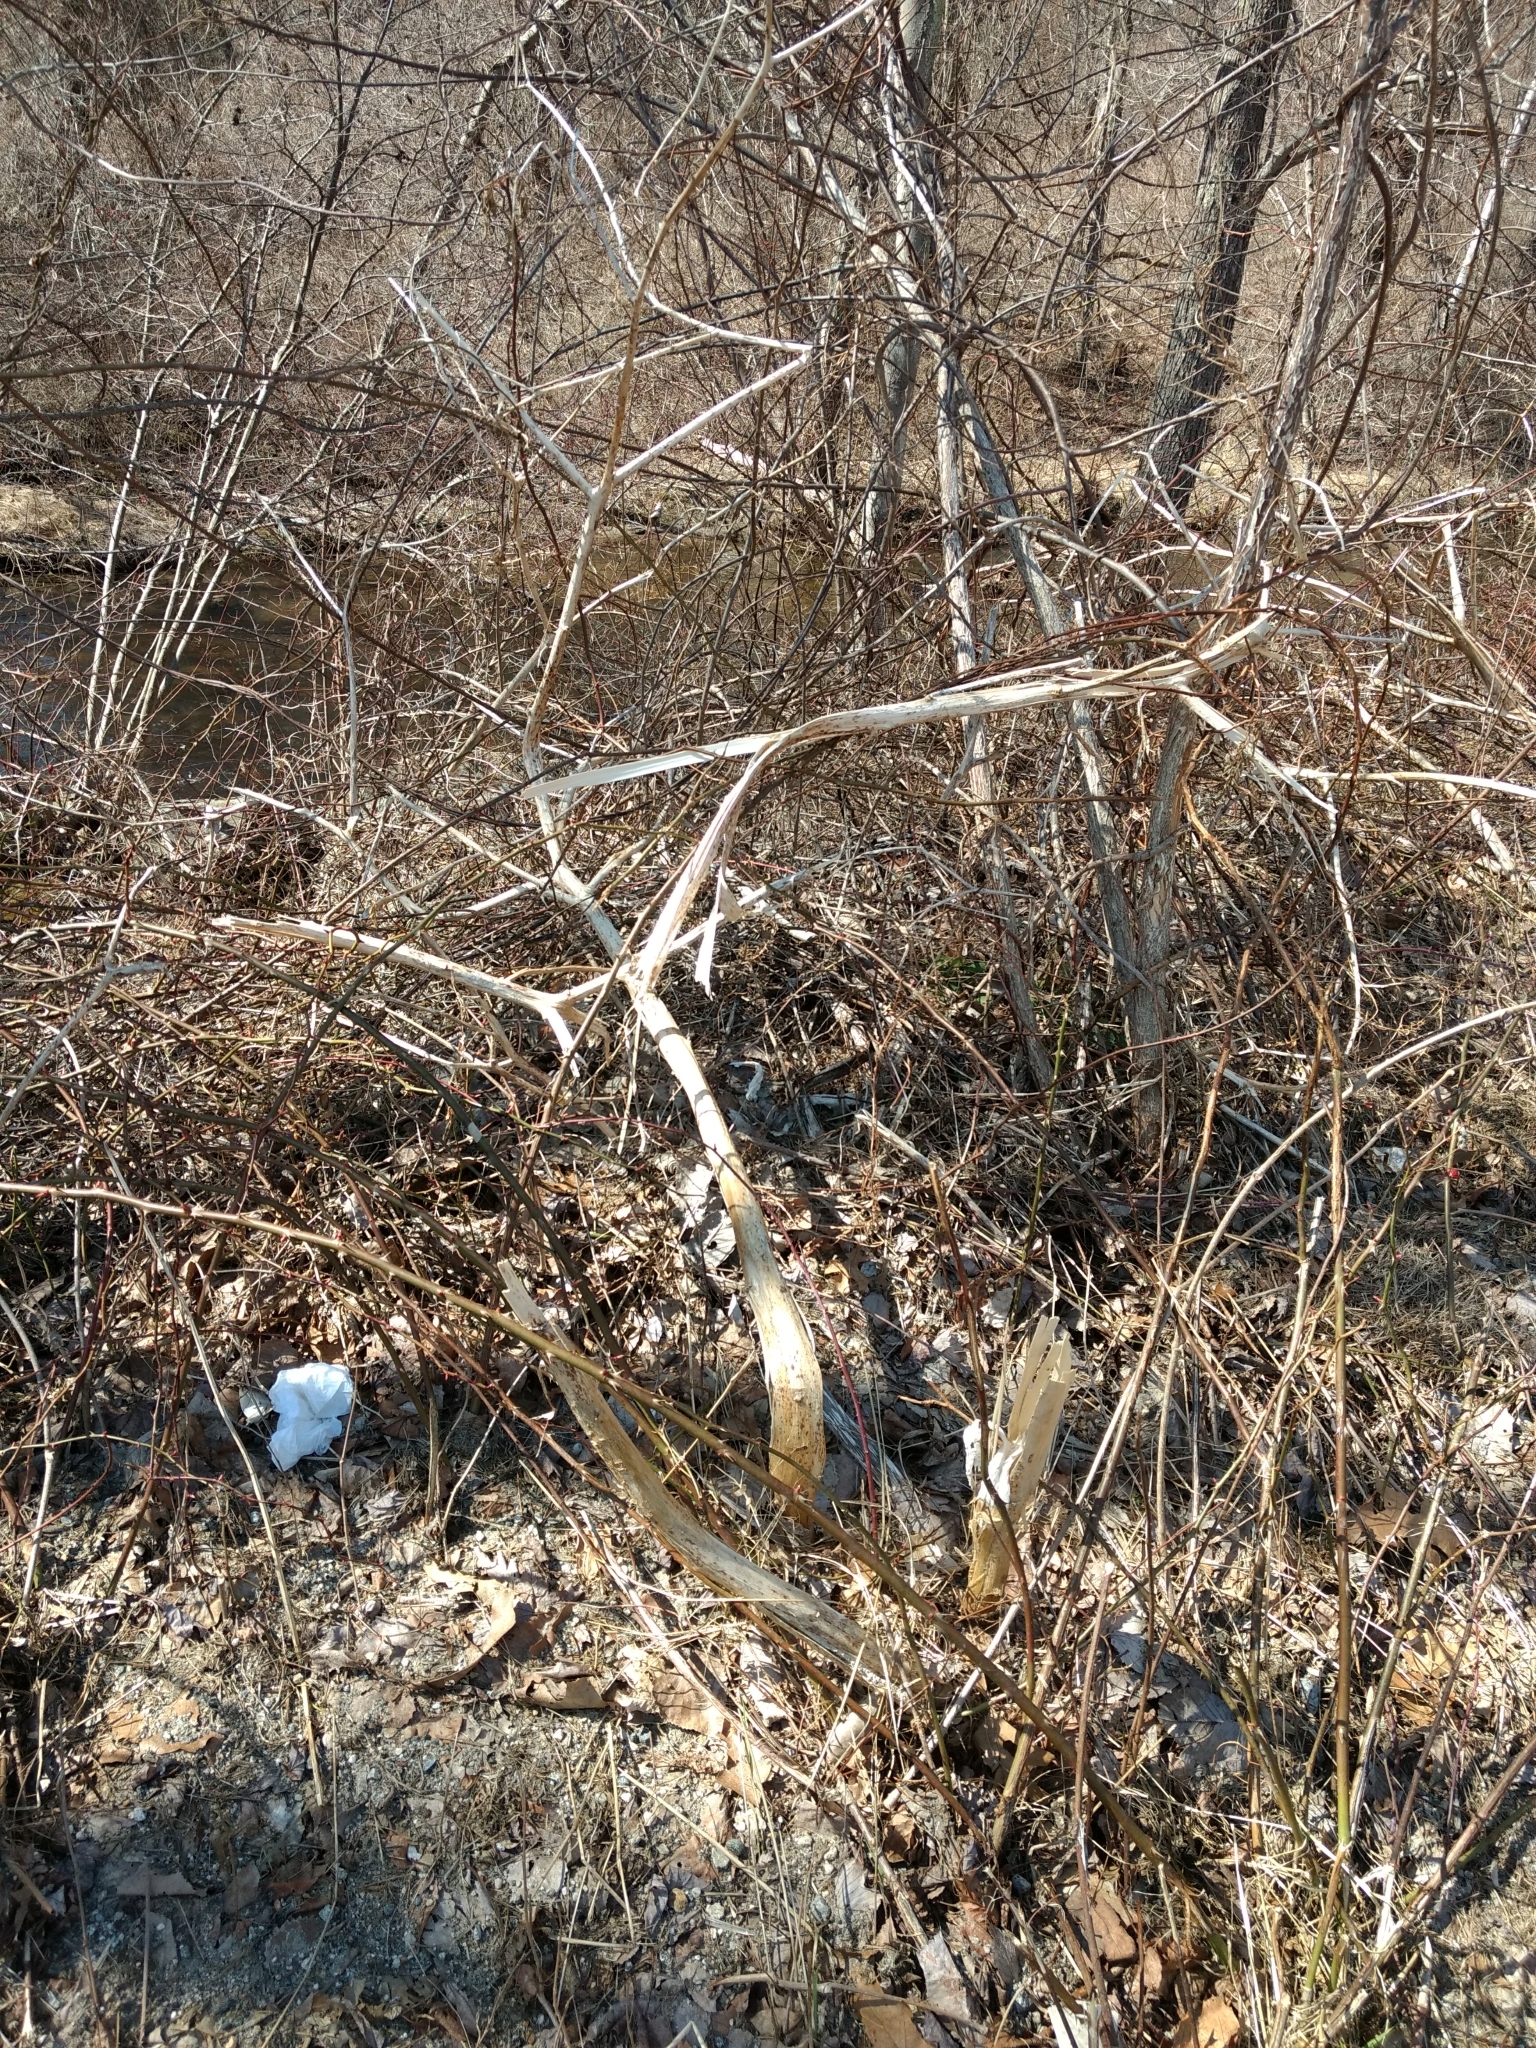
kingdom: Plantae
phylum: Tracheophyta
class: Magnoliopsida
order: Caryophyllales
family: Phytolaccaceae
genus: Phytolacca
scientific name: Phytolacca americana
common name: American pokeweed
